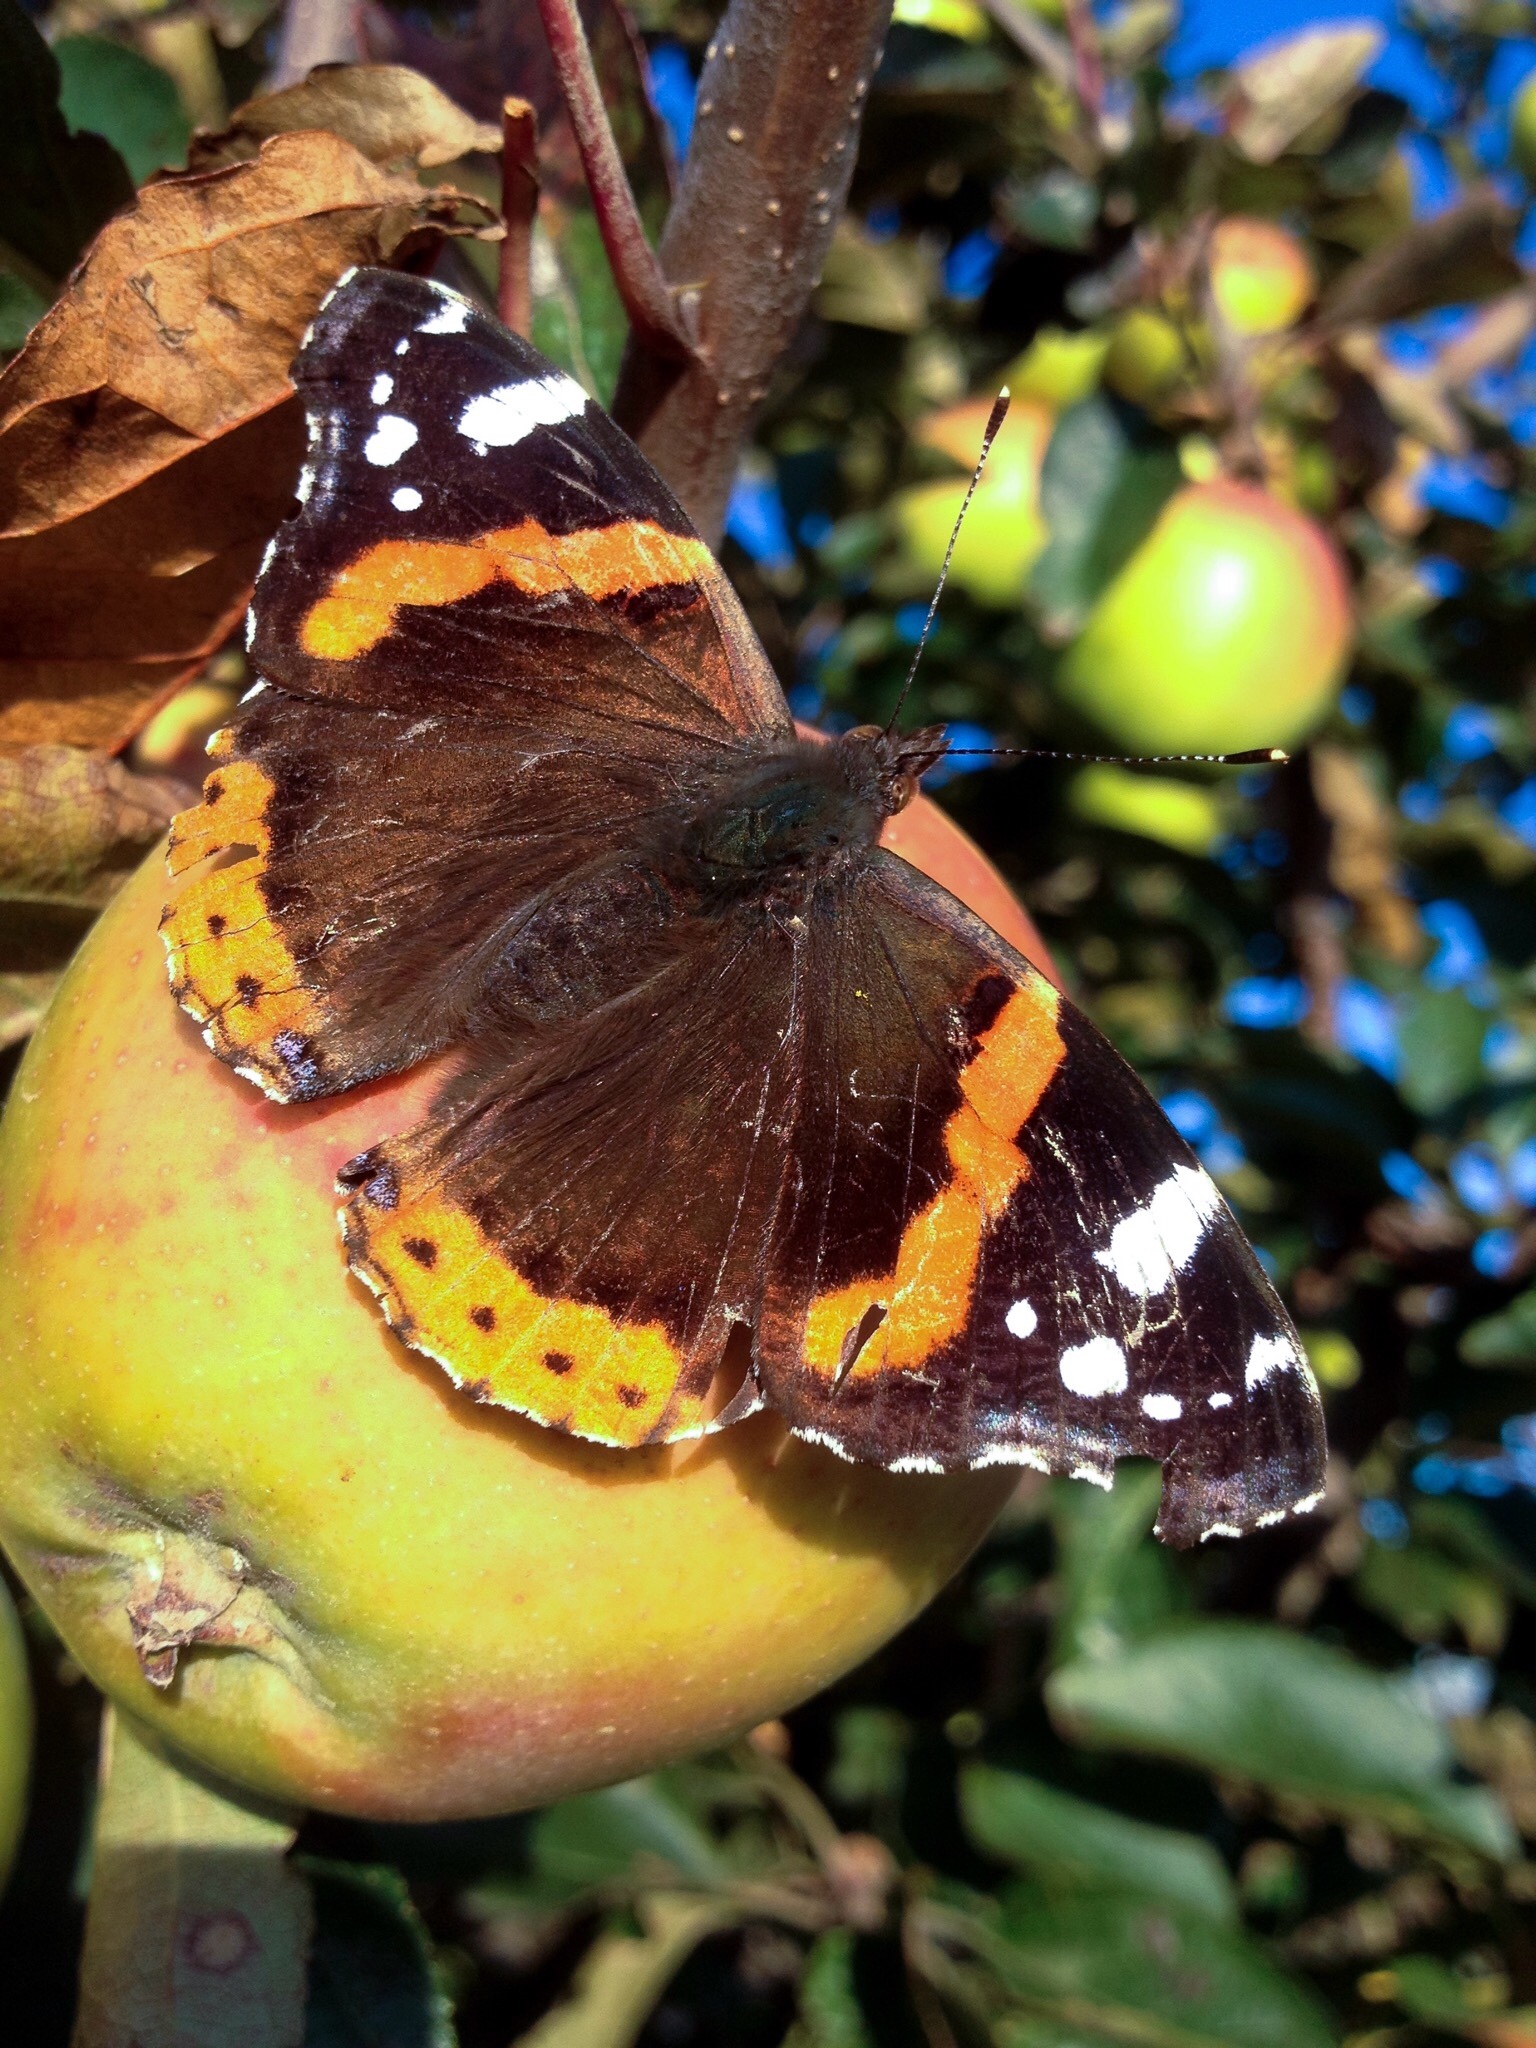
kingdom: Animalia
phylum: Arthropoda
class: Insecta
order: Lepidoptera
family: Nymphalidae
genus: Vanessa
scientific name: Vanessa atalanta
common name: Red admiral
